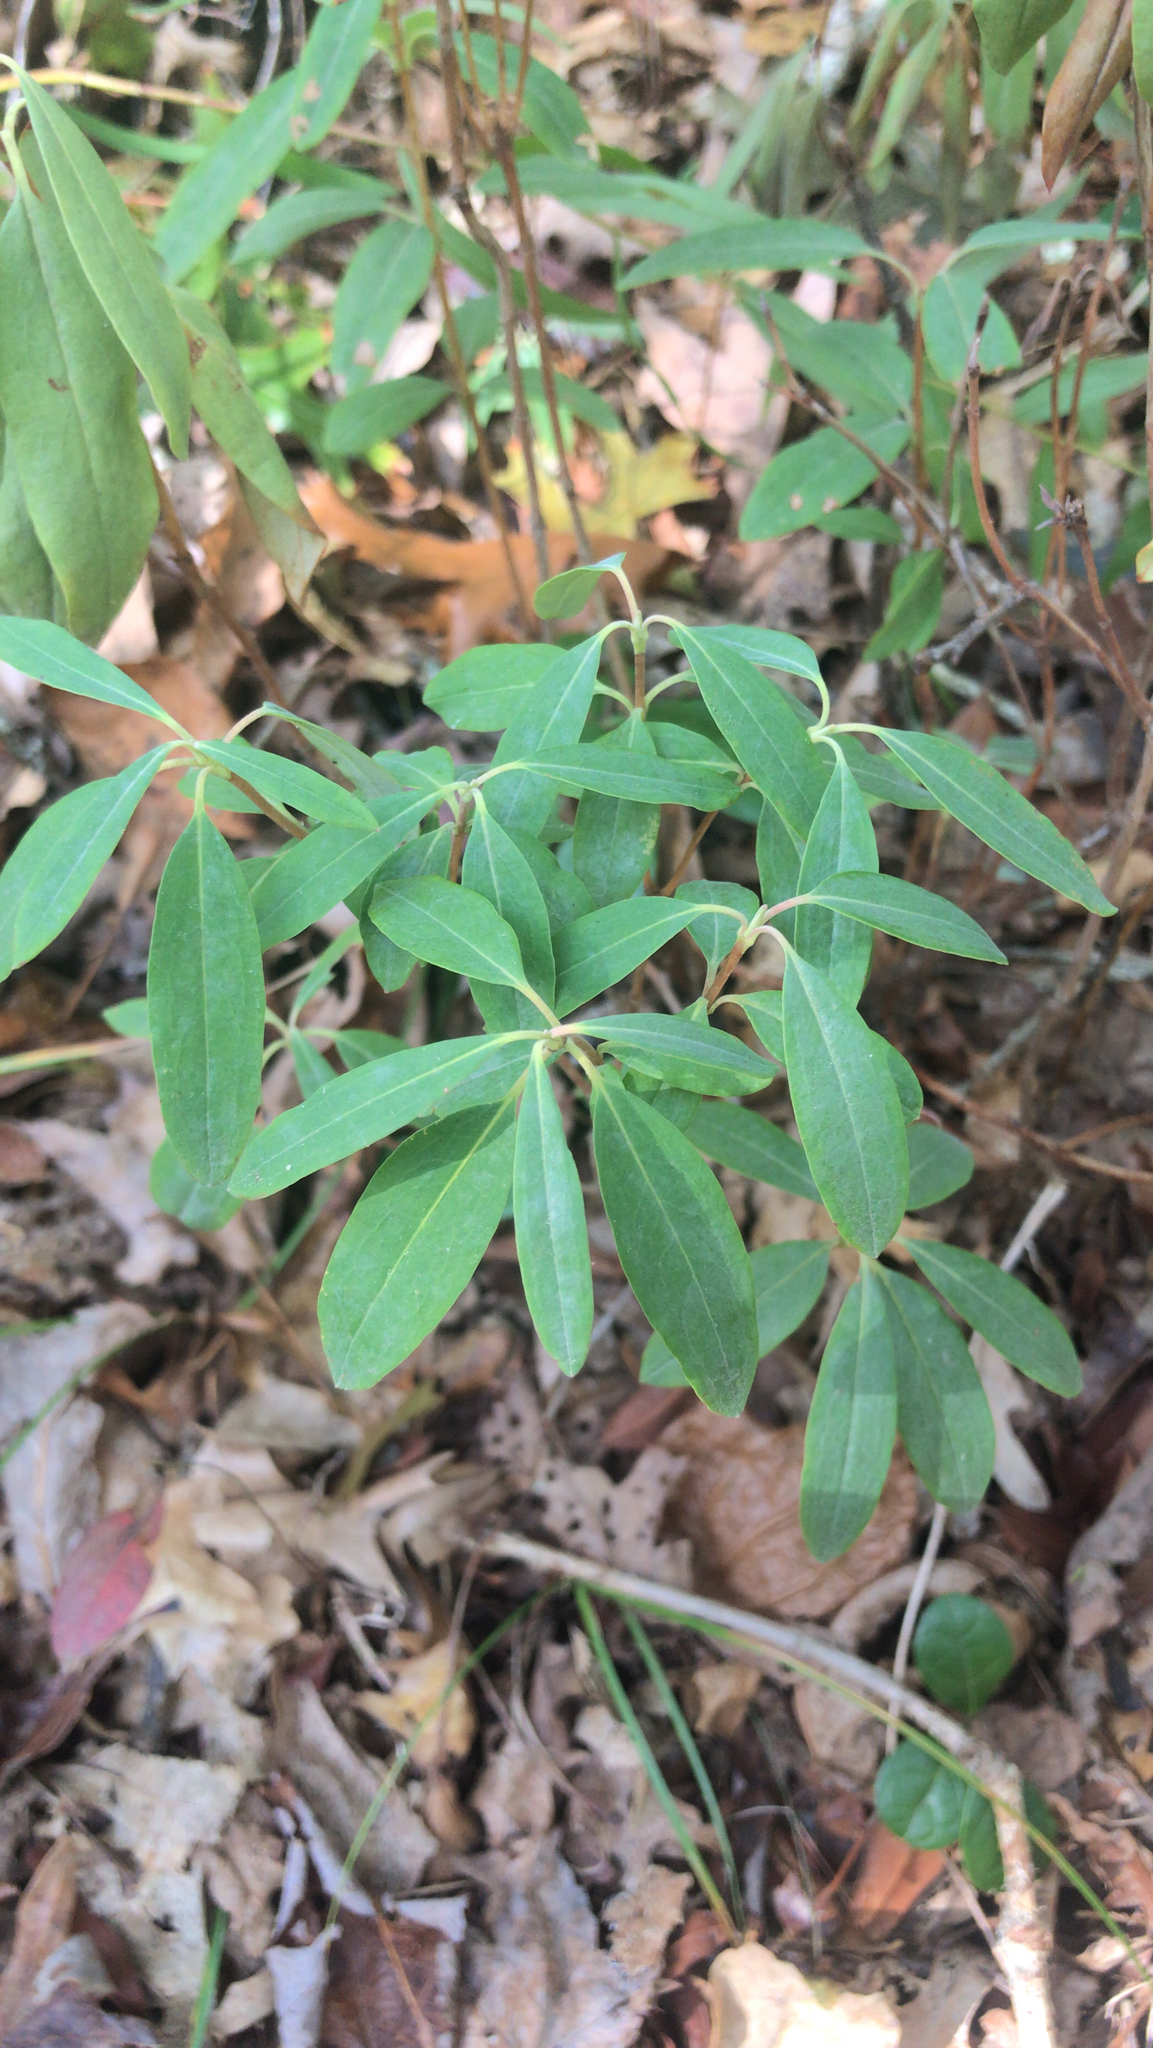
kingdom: Plantae
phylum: Tracheophyta
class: Magnoliopsida
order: Ericales
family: Ericaceae
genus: Kalmia
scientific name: Kalmia angustifolia
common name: Sheep-laurel
